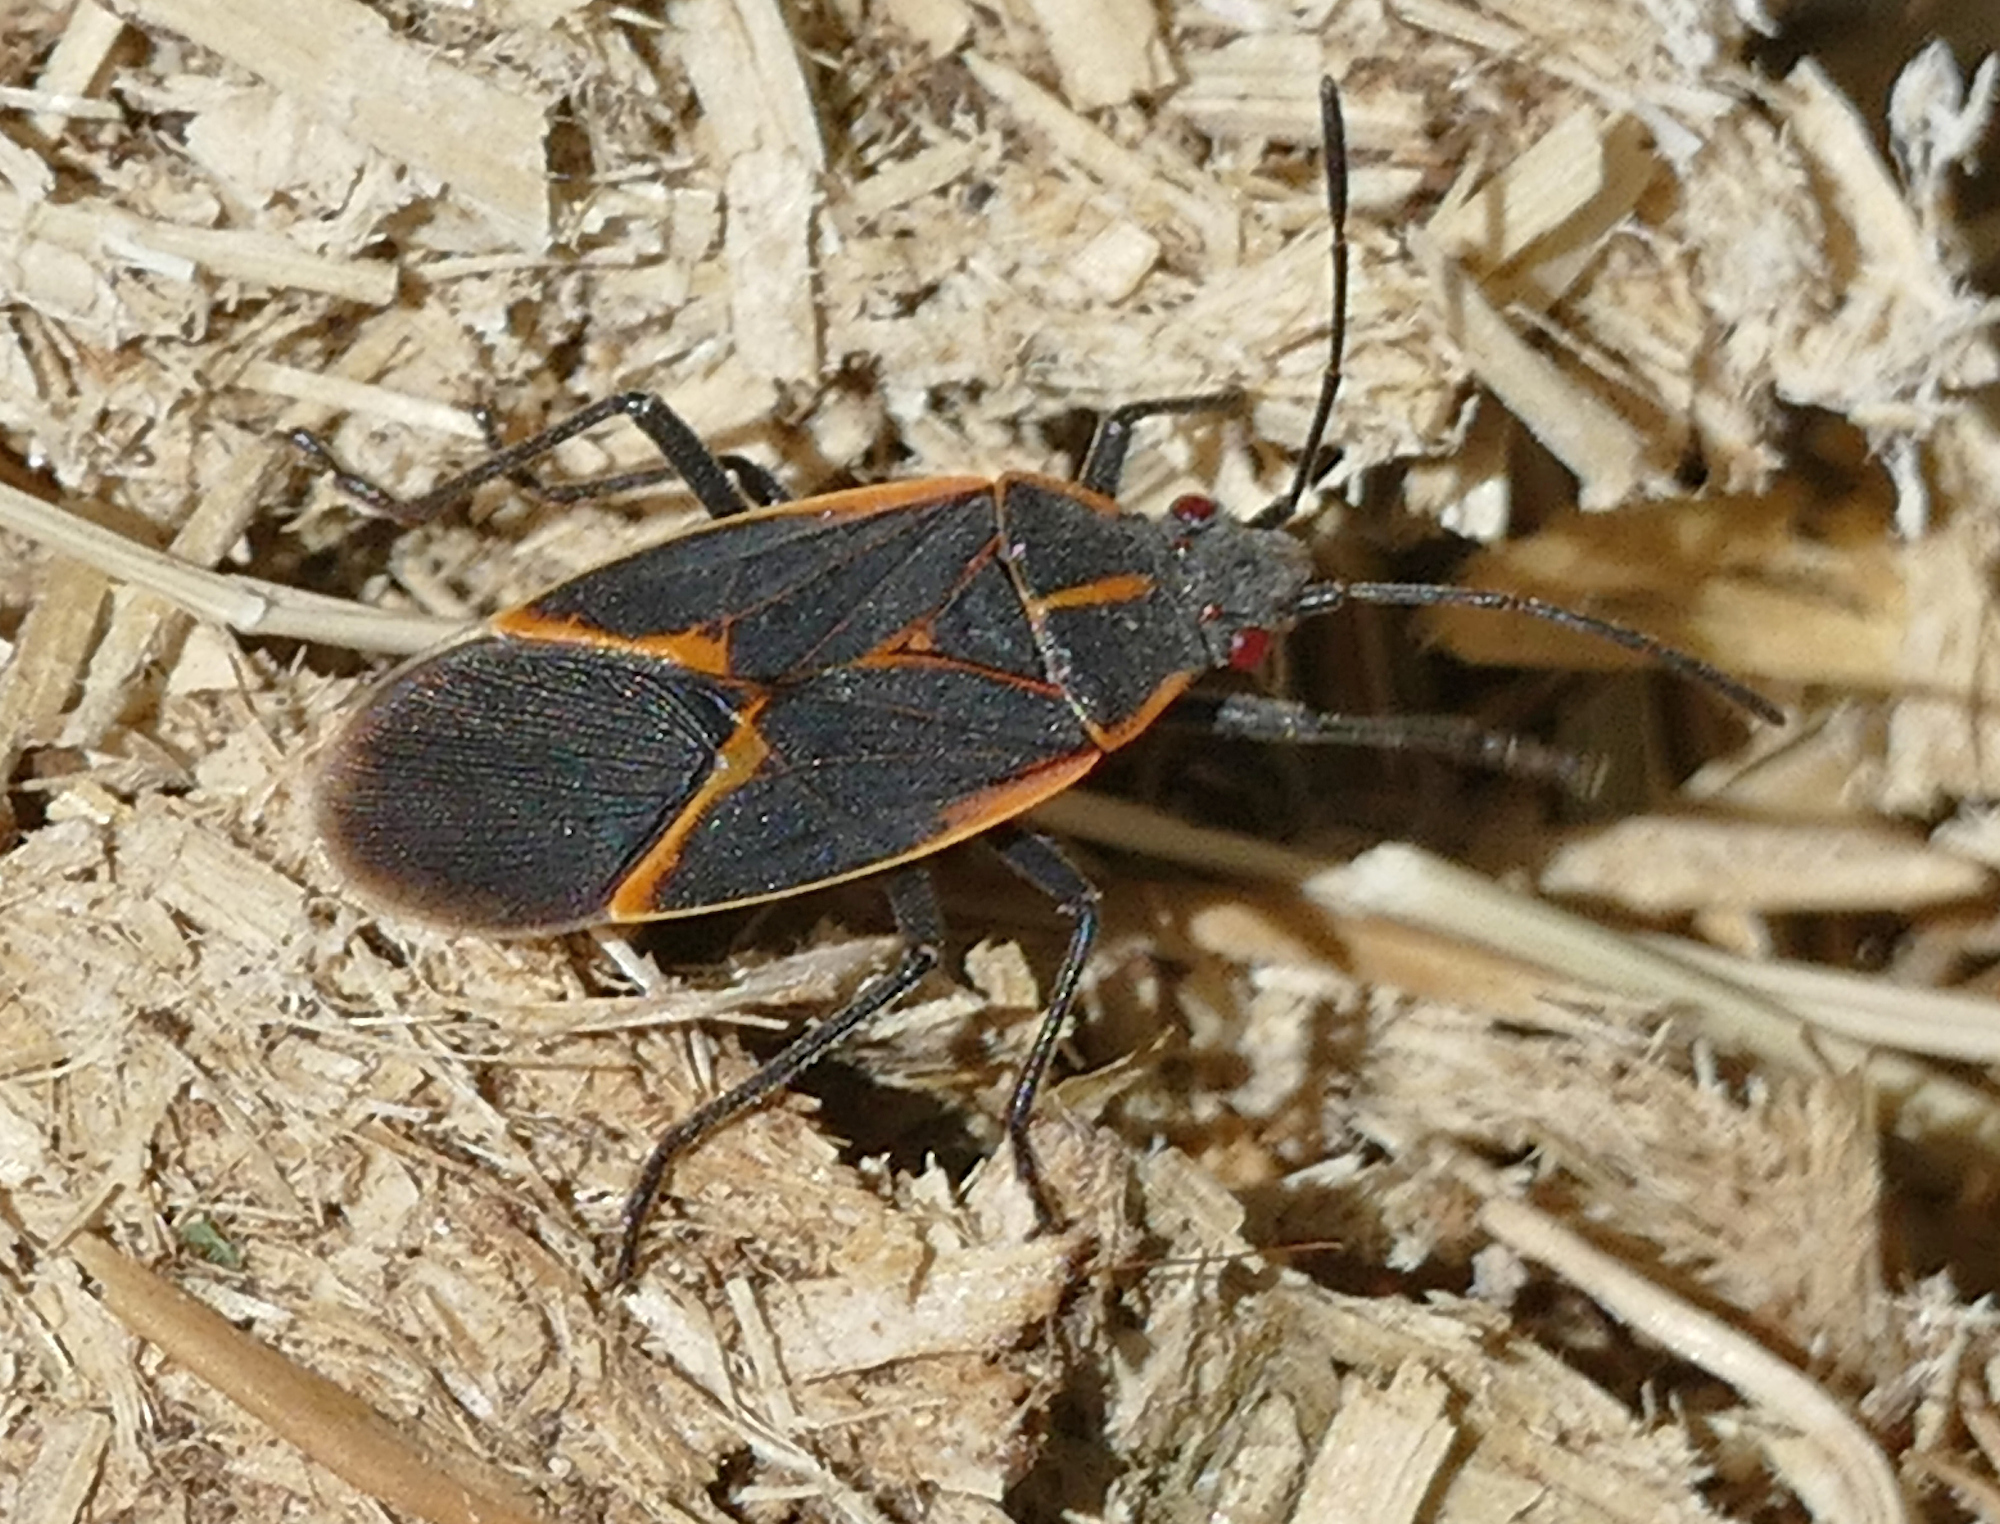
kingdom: Animalia
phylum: Arthropoda
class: Insecta
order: Hemiptera
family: Rhopalidae
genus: Boisea
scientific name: Boisea trivittata
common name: Boxelder bug
